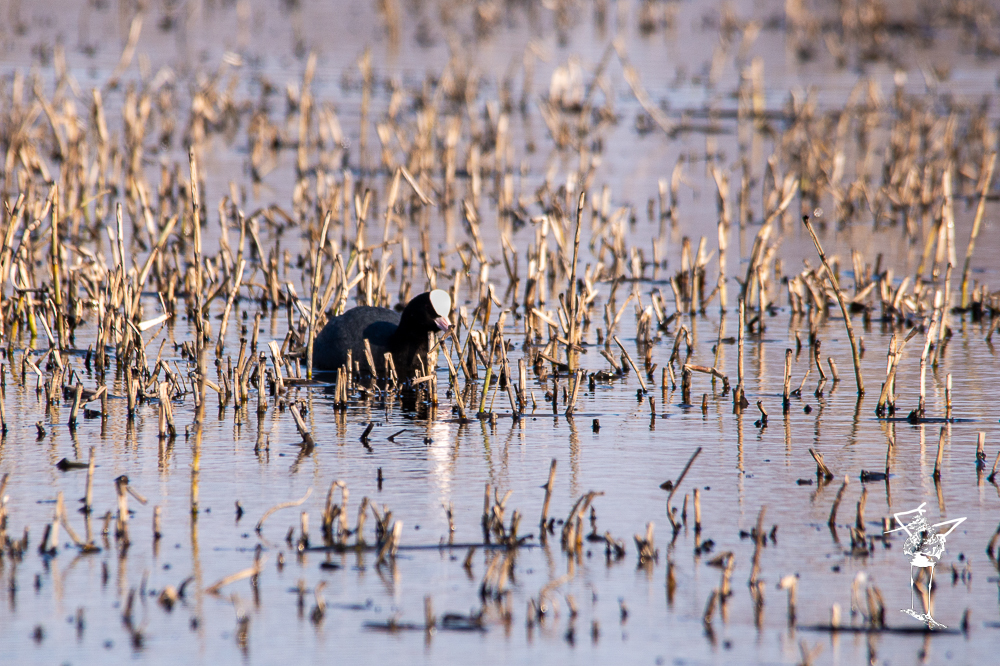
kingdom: Animalia
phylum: Chordata
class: Aves
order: Gruiformes
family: Rallidae
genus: Fulica
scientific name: Fulica atra
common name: Eurasian coot
